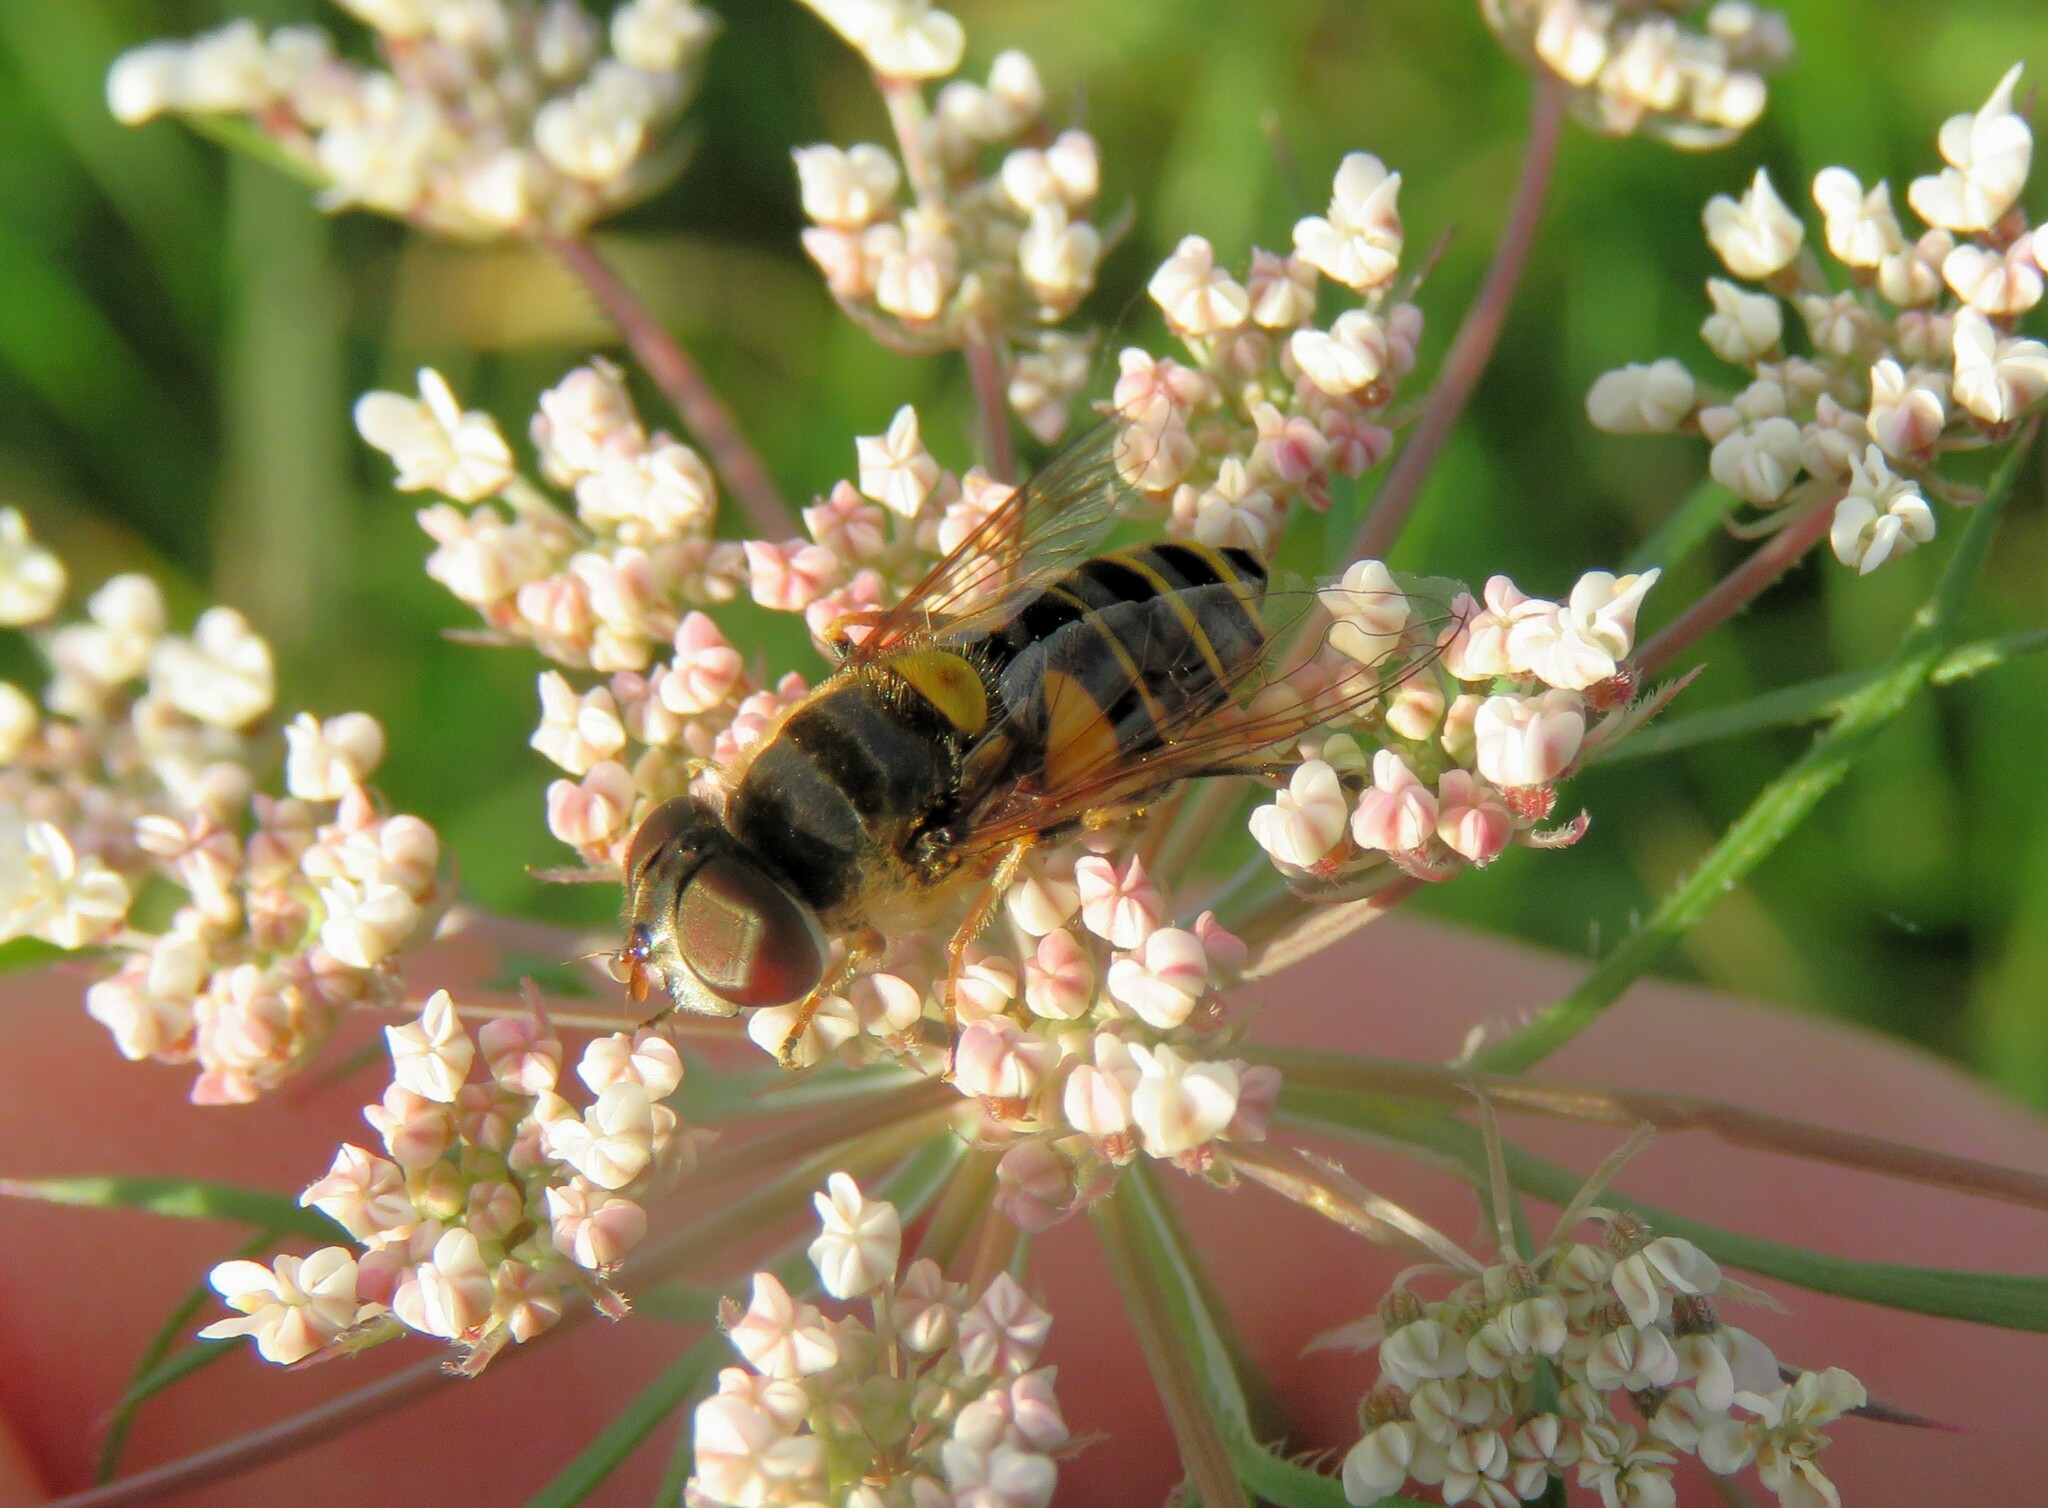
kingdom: Animalia
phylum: Arthropoda
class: Insecta
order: Diptera
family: Syrphidae
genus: Eristalis
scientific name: Eristalis transversa
